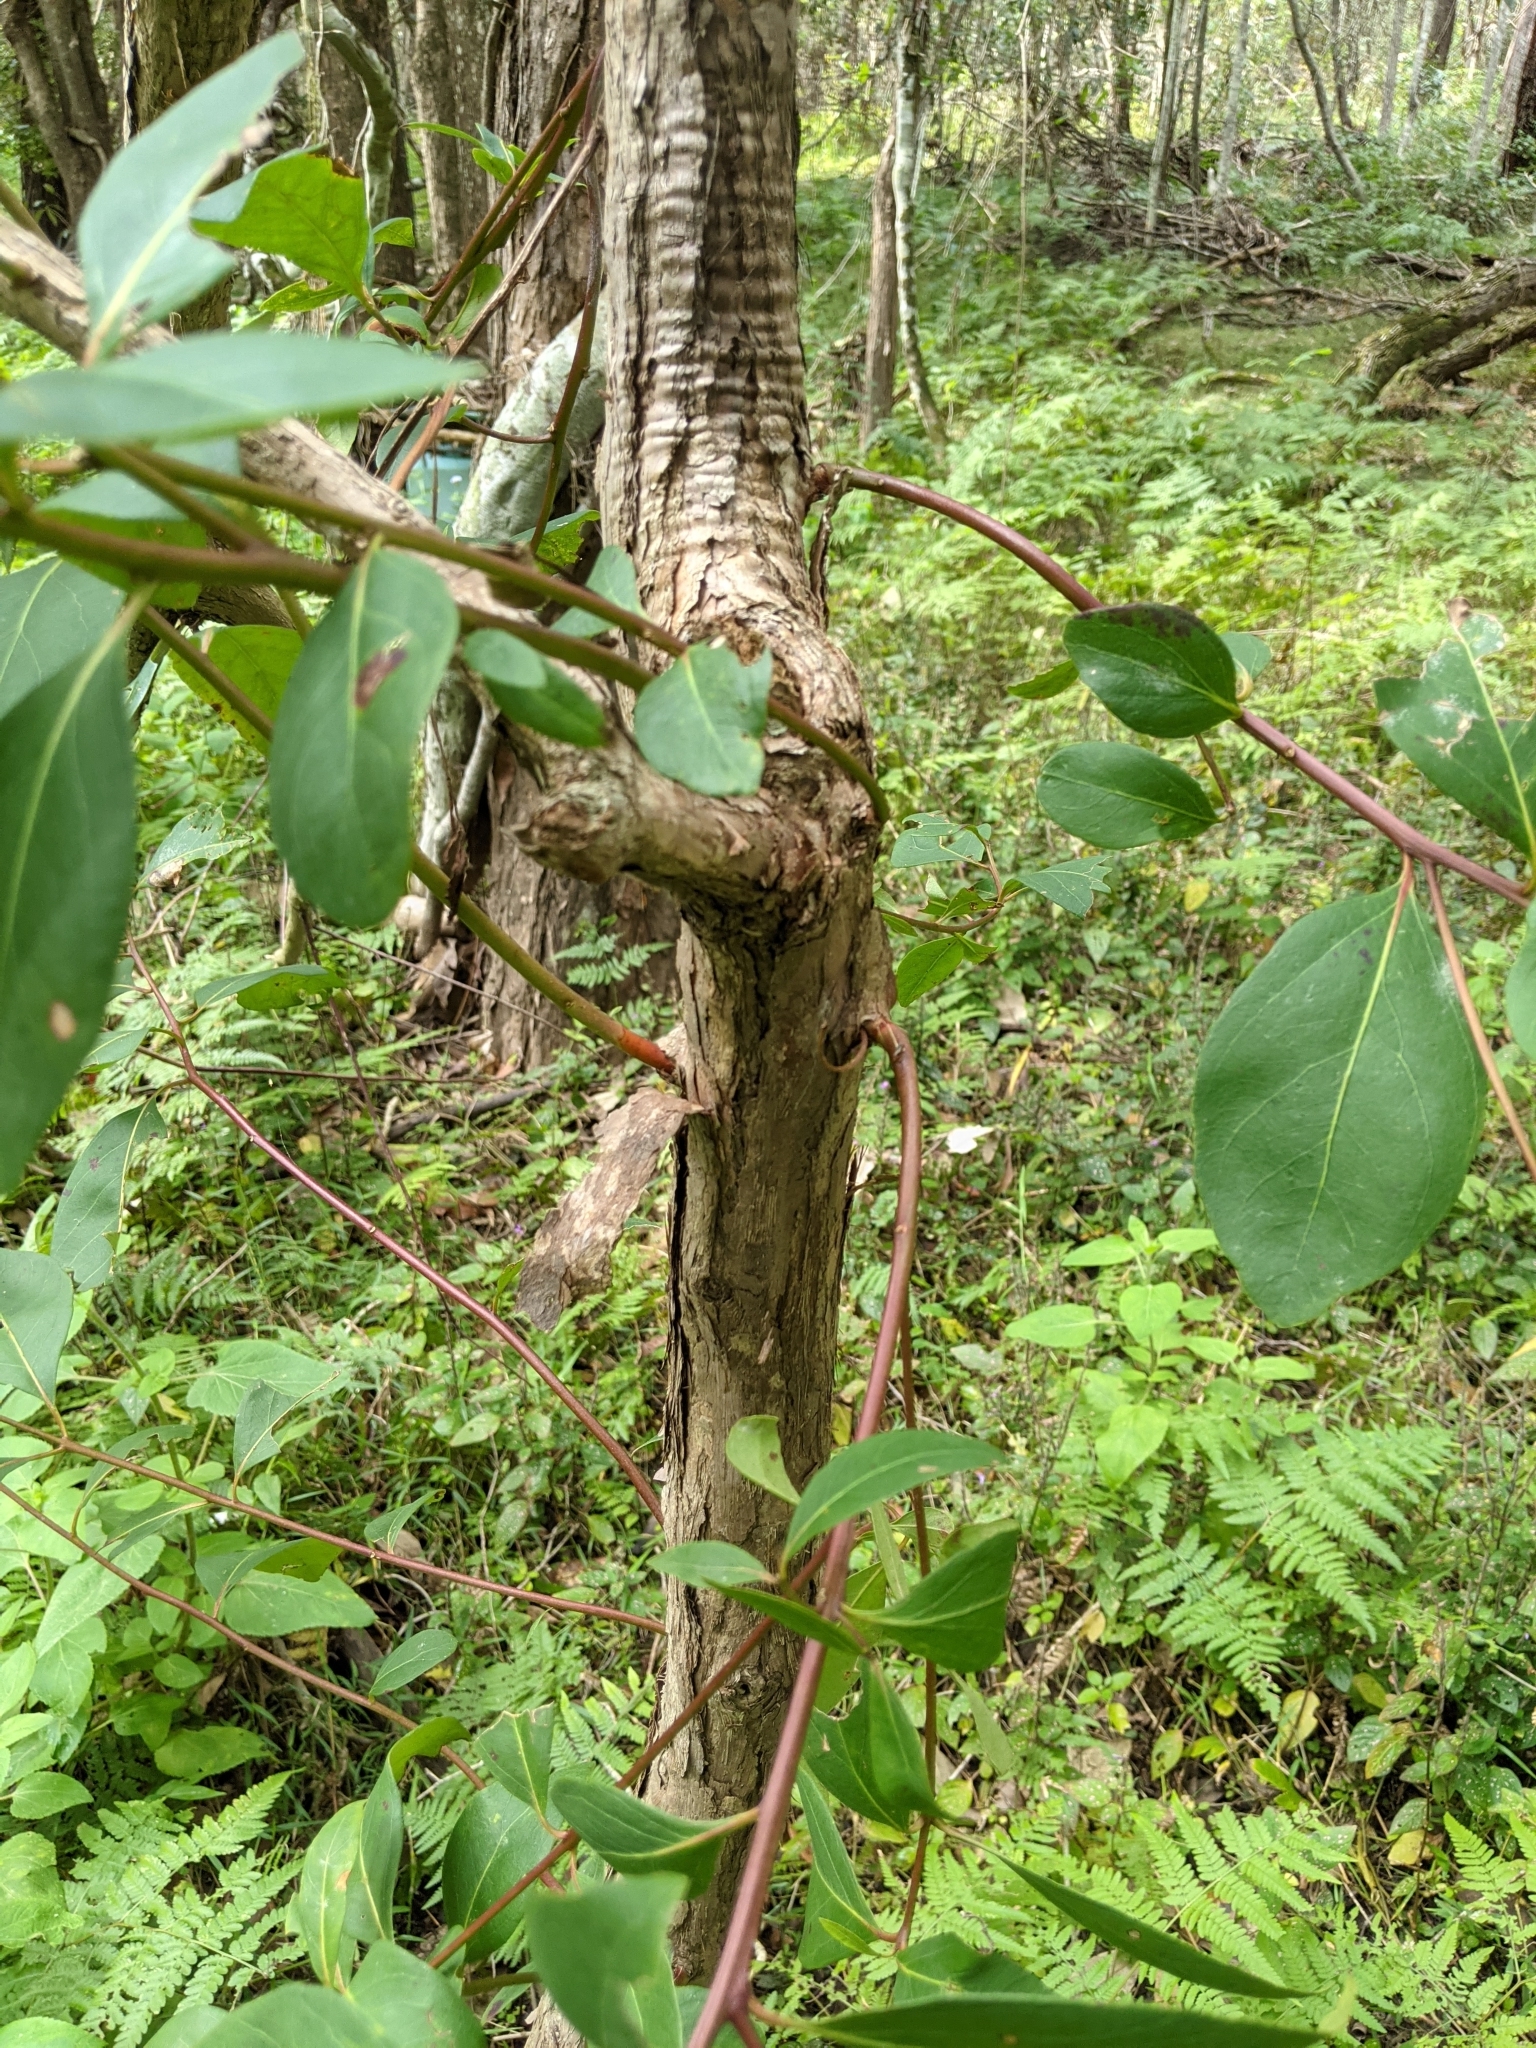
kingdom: Plantae
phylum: Tracheophyta
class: Magnoliopsida
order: Myrtales
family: Myrtaceae
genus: Lophostemon
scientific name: Lophostemon suaveolens
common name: Paperbark-mahogany
